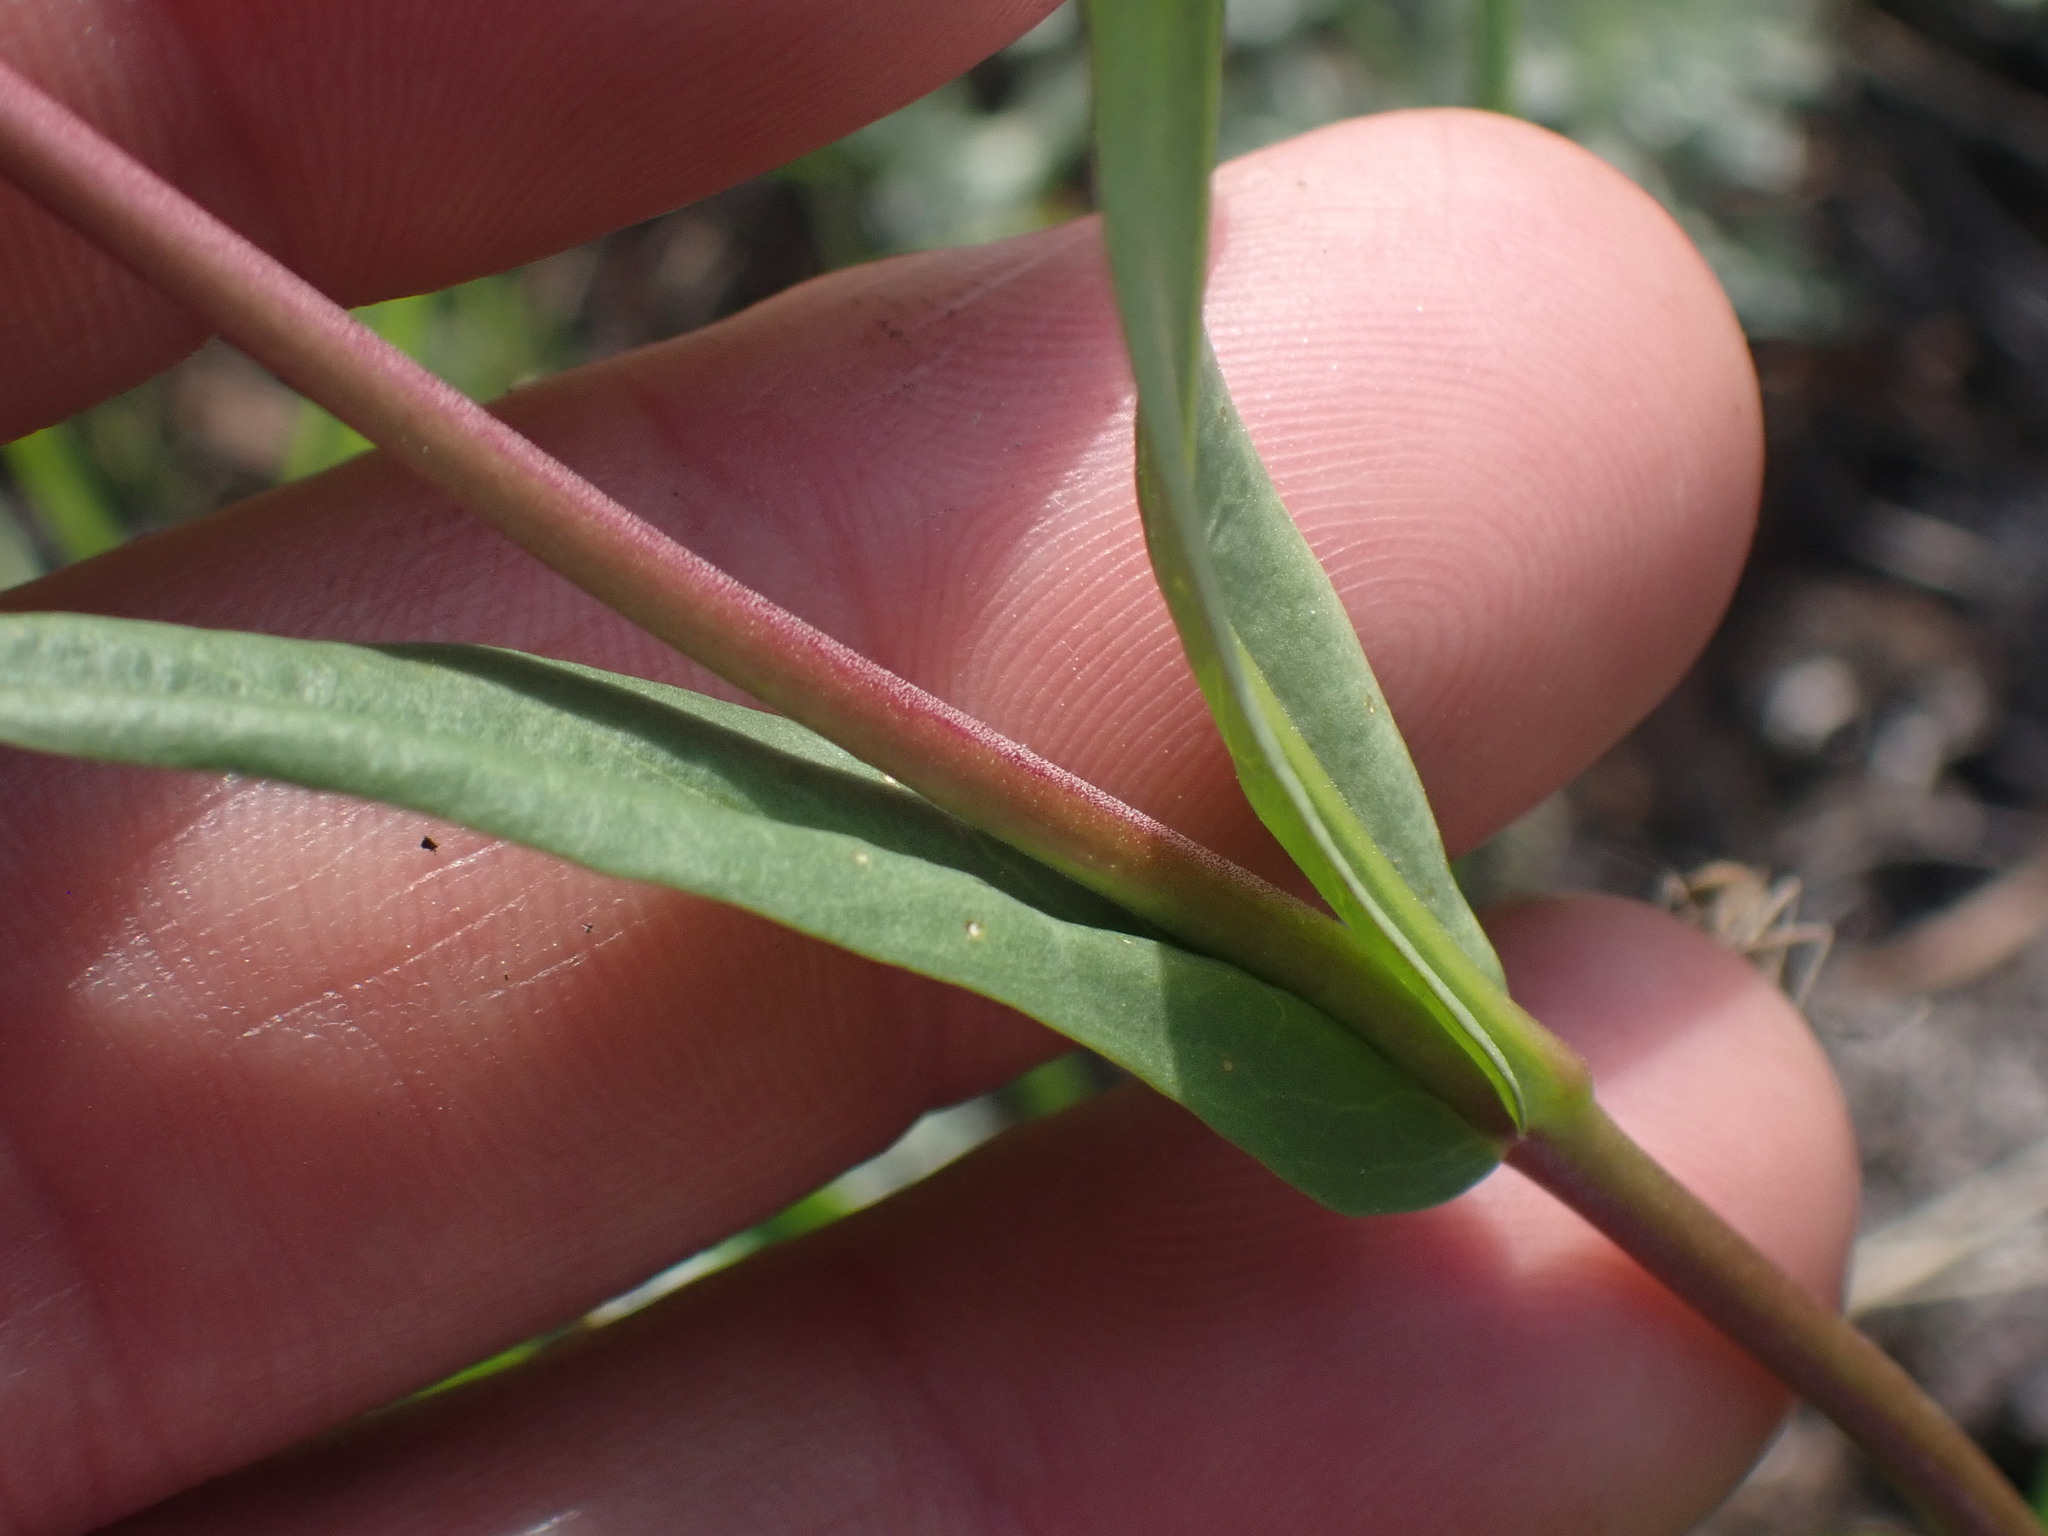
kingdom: Plantae
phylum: Tracheophyta
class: Magnoliopsida
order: Lamiales
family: Plantaginaceae
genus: Penstemon
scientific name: Penstemon procerus
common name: Small-flower penstemon
